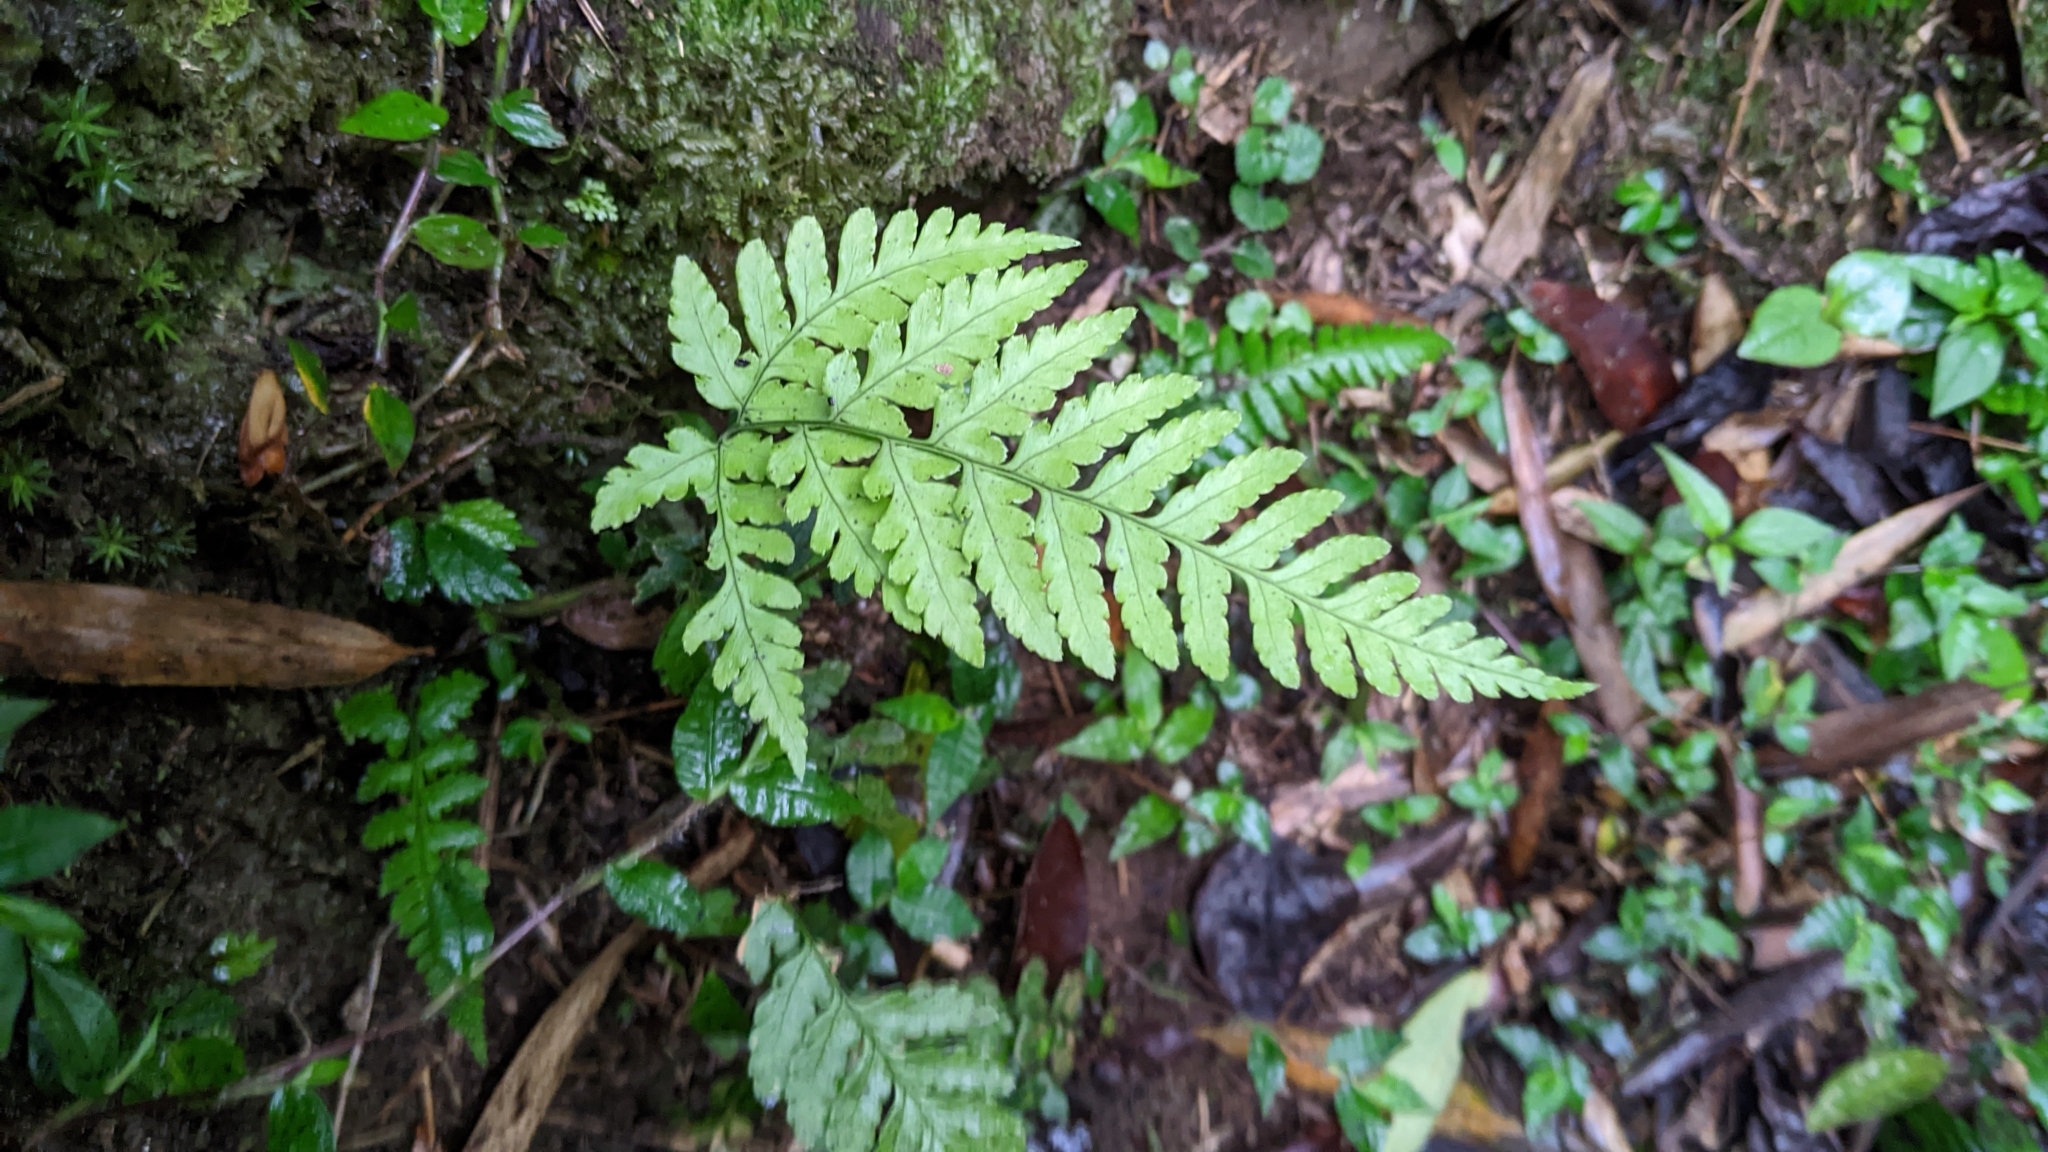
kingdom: Plantae
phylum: Tracheophyta
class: Polypodiopsida
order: Polypodiales
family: Dryopteridaceae
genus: Dryopteris
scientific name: Dryopteris sparsa
